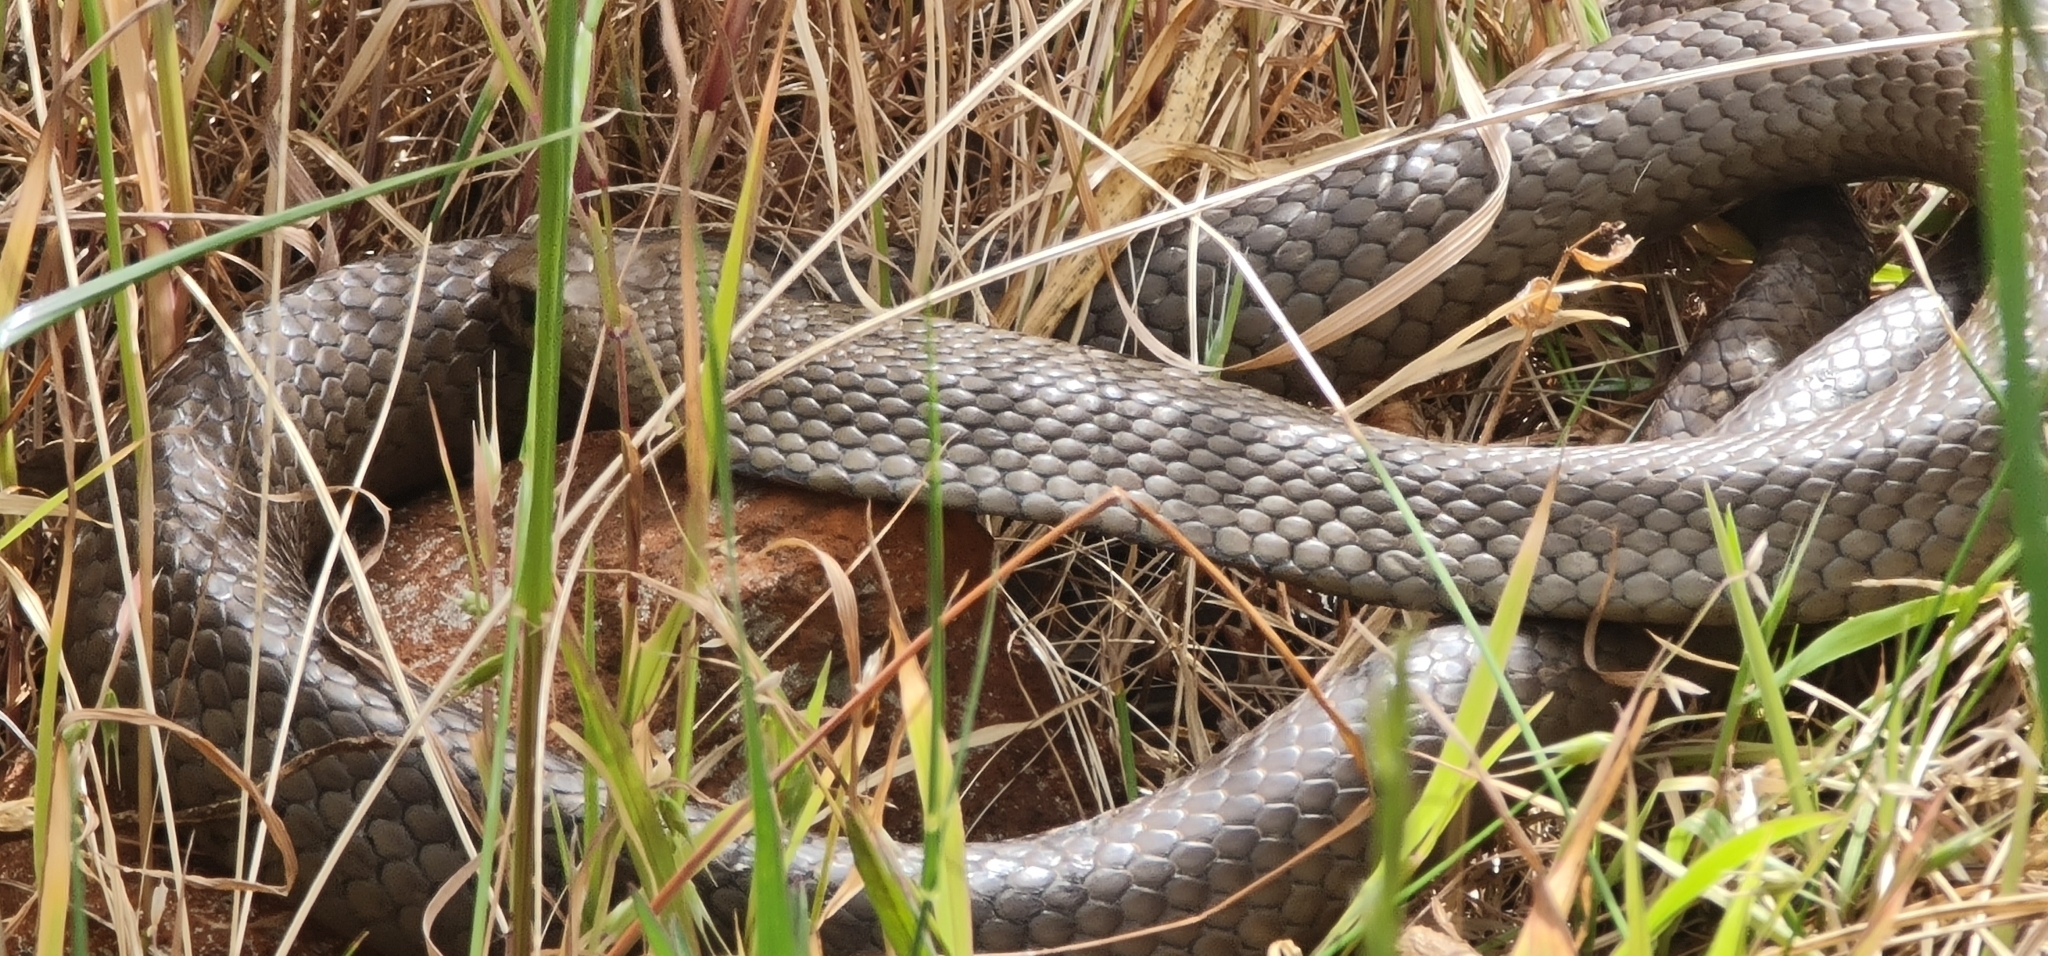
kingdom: Animalia
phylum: Chordata
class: Squamata
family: Elapidae
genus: Pseudonaja
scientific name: Pseudonaja textilis
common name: Eastern brown snake
